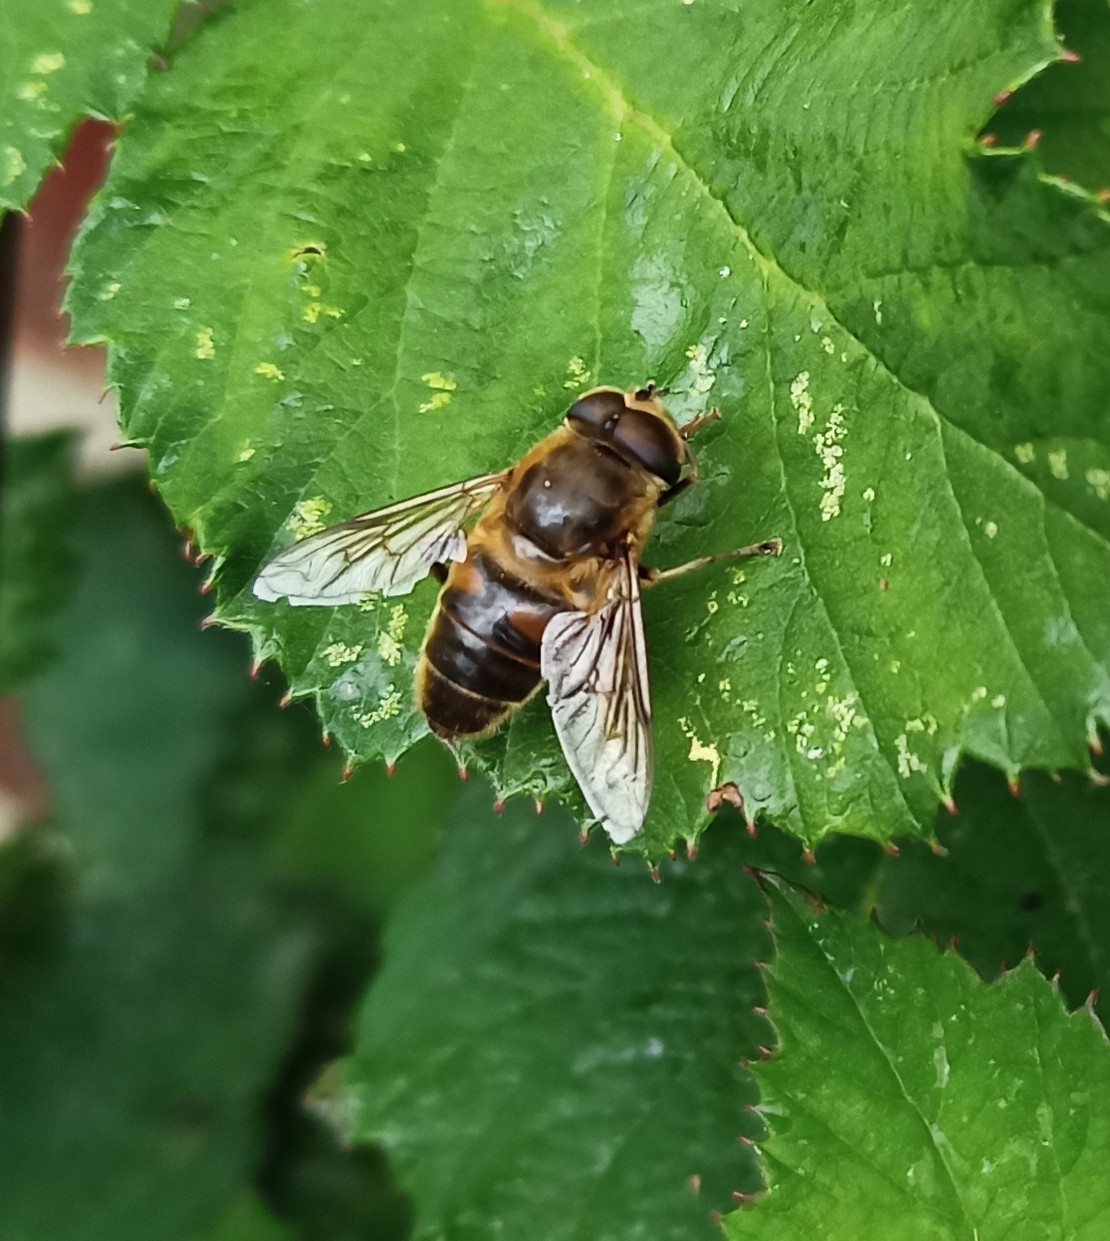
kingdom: Animalia
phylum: Arthropoda
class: Insecta
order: Diptera
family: Syrphidae
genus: Eristalis
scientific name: Eristalis tenax
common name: Drone fly
